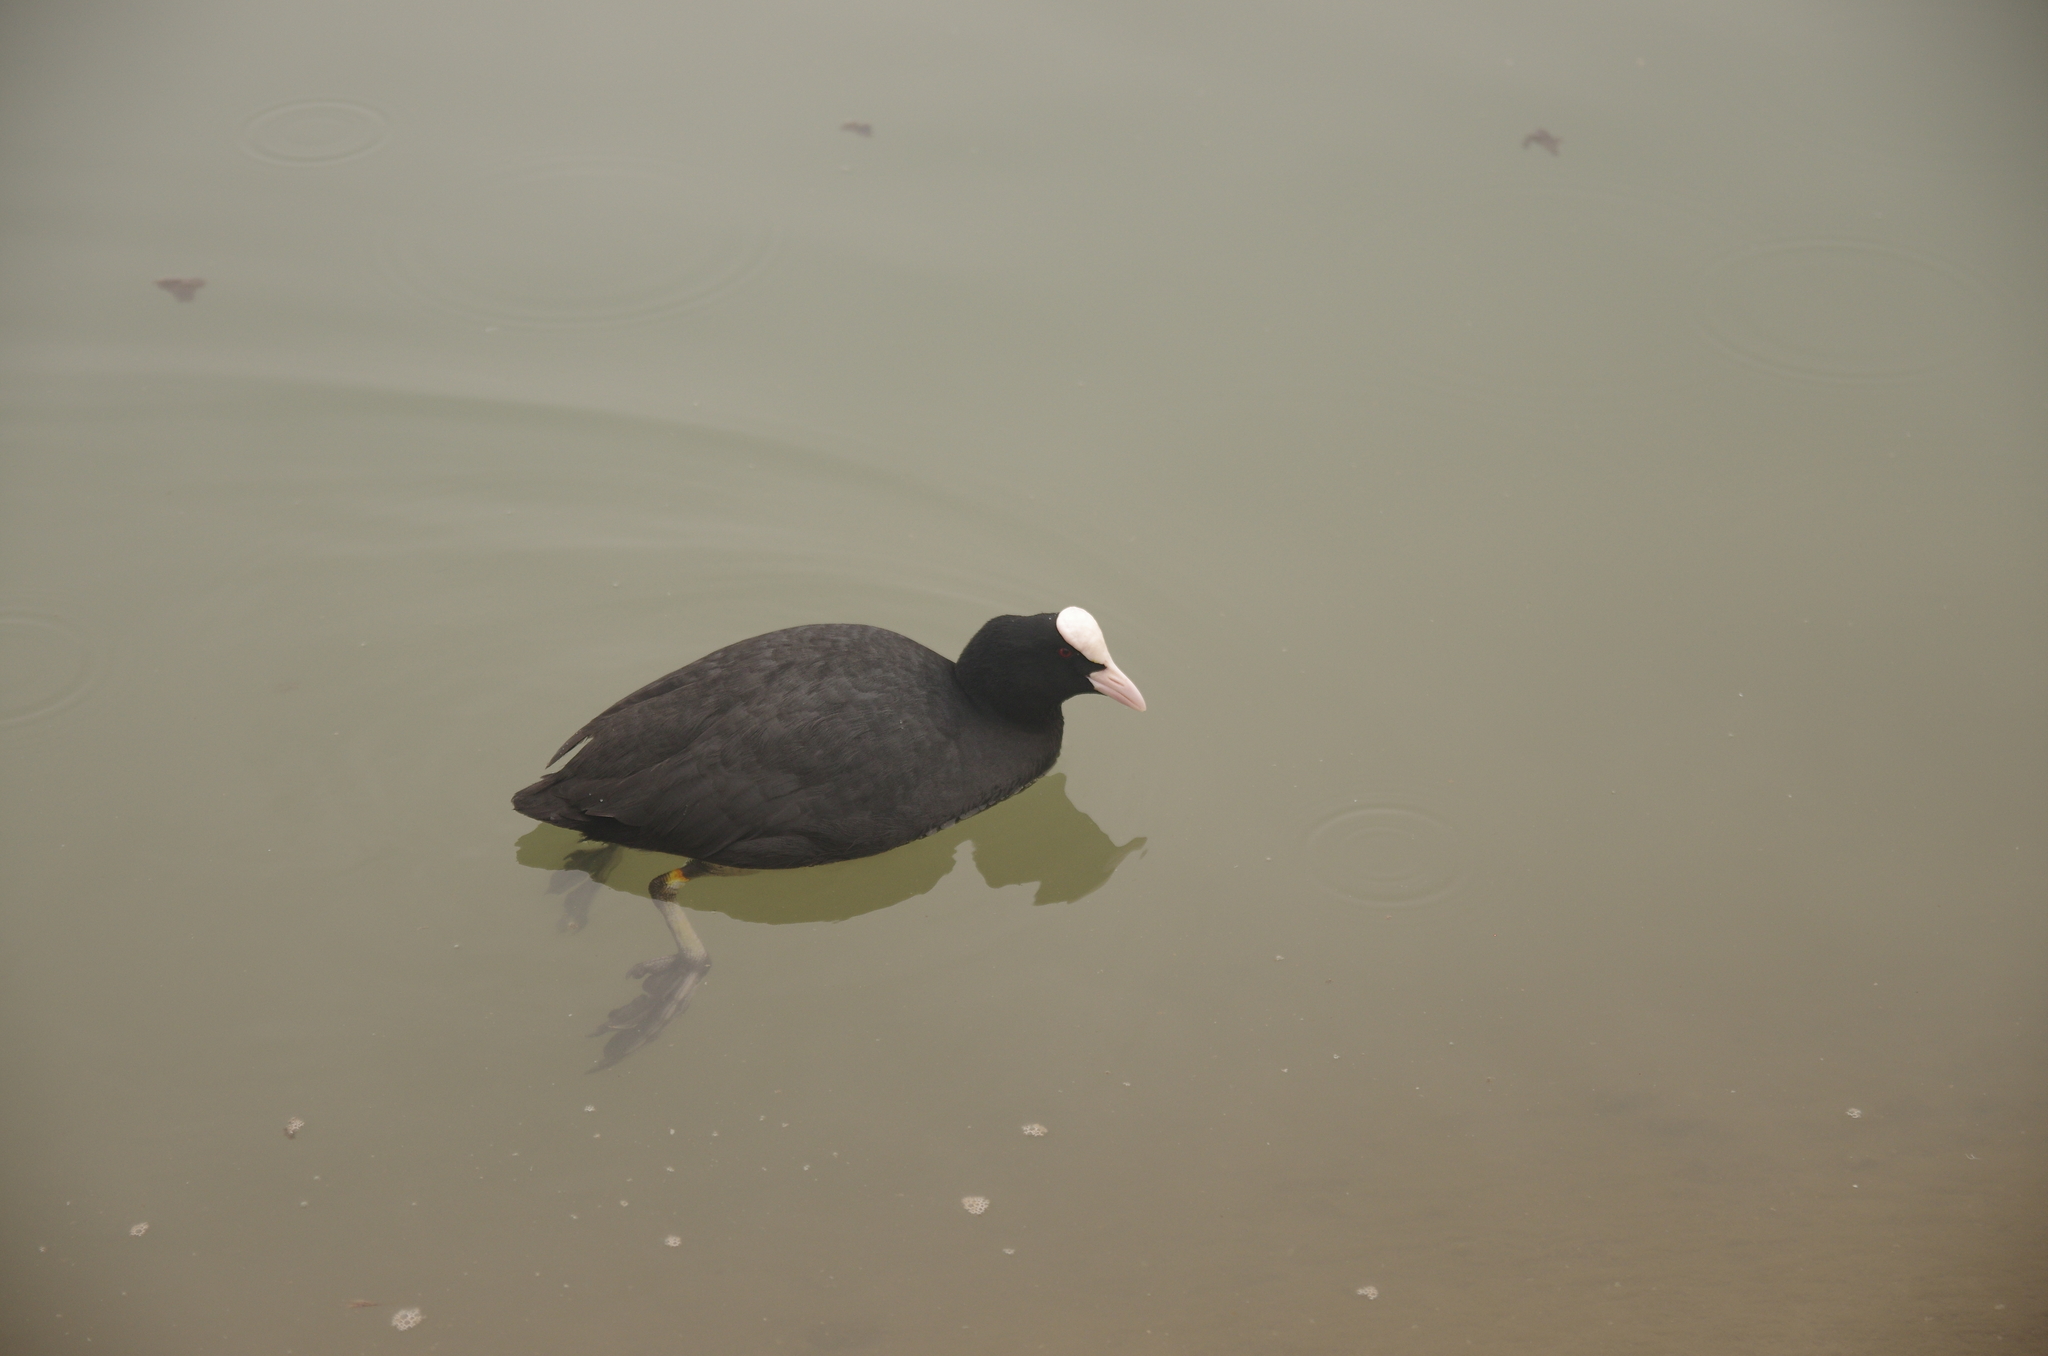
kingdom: Animalia
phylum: Chordata
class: Aves
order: Gruiformes
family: Rallidae
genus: Fulica
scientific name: Fulica atra
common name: Eurasian coot
